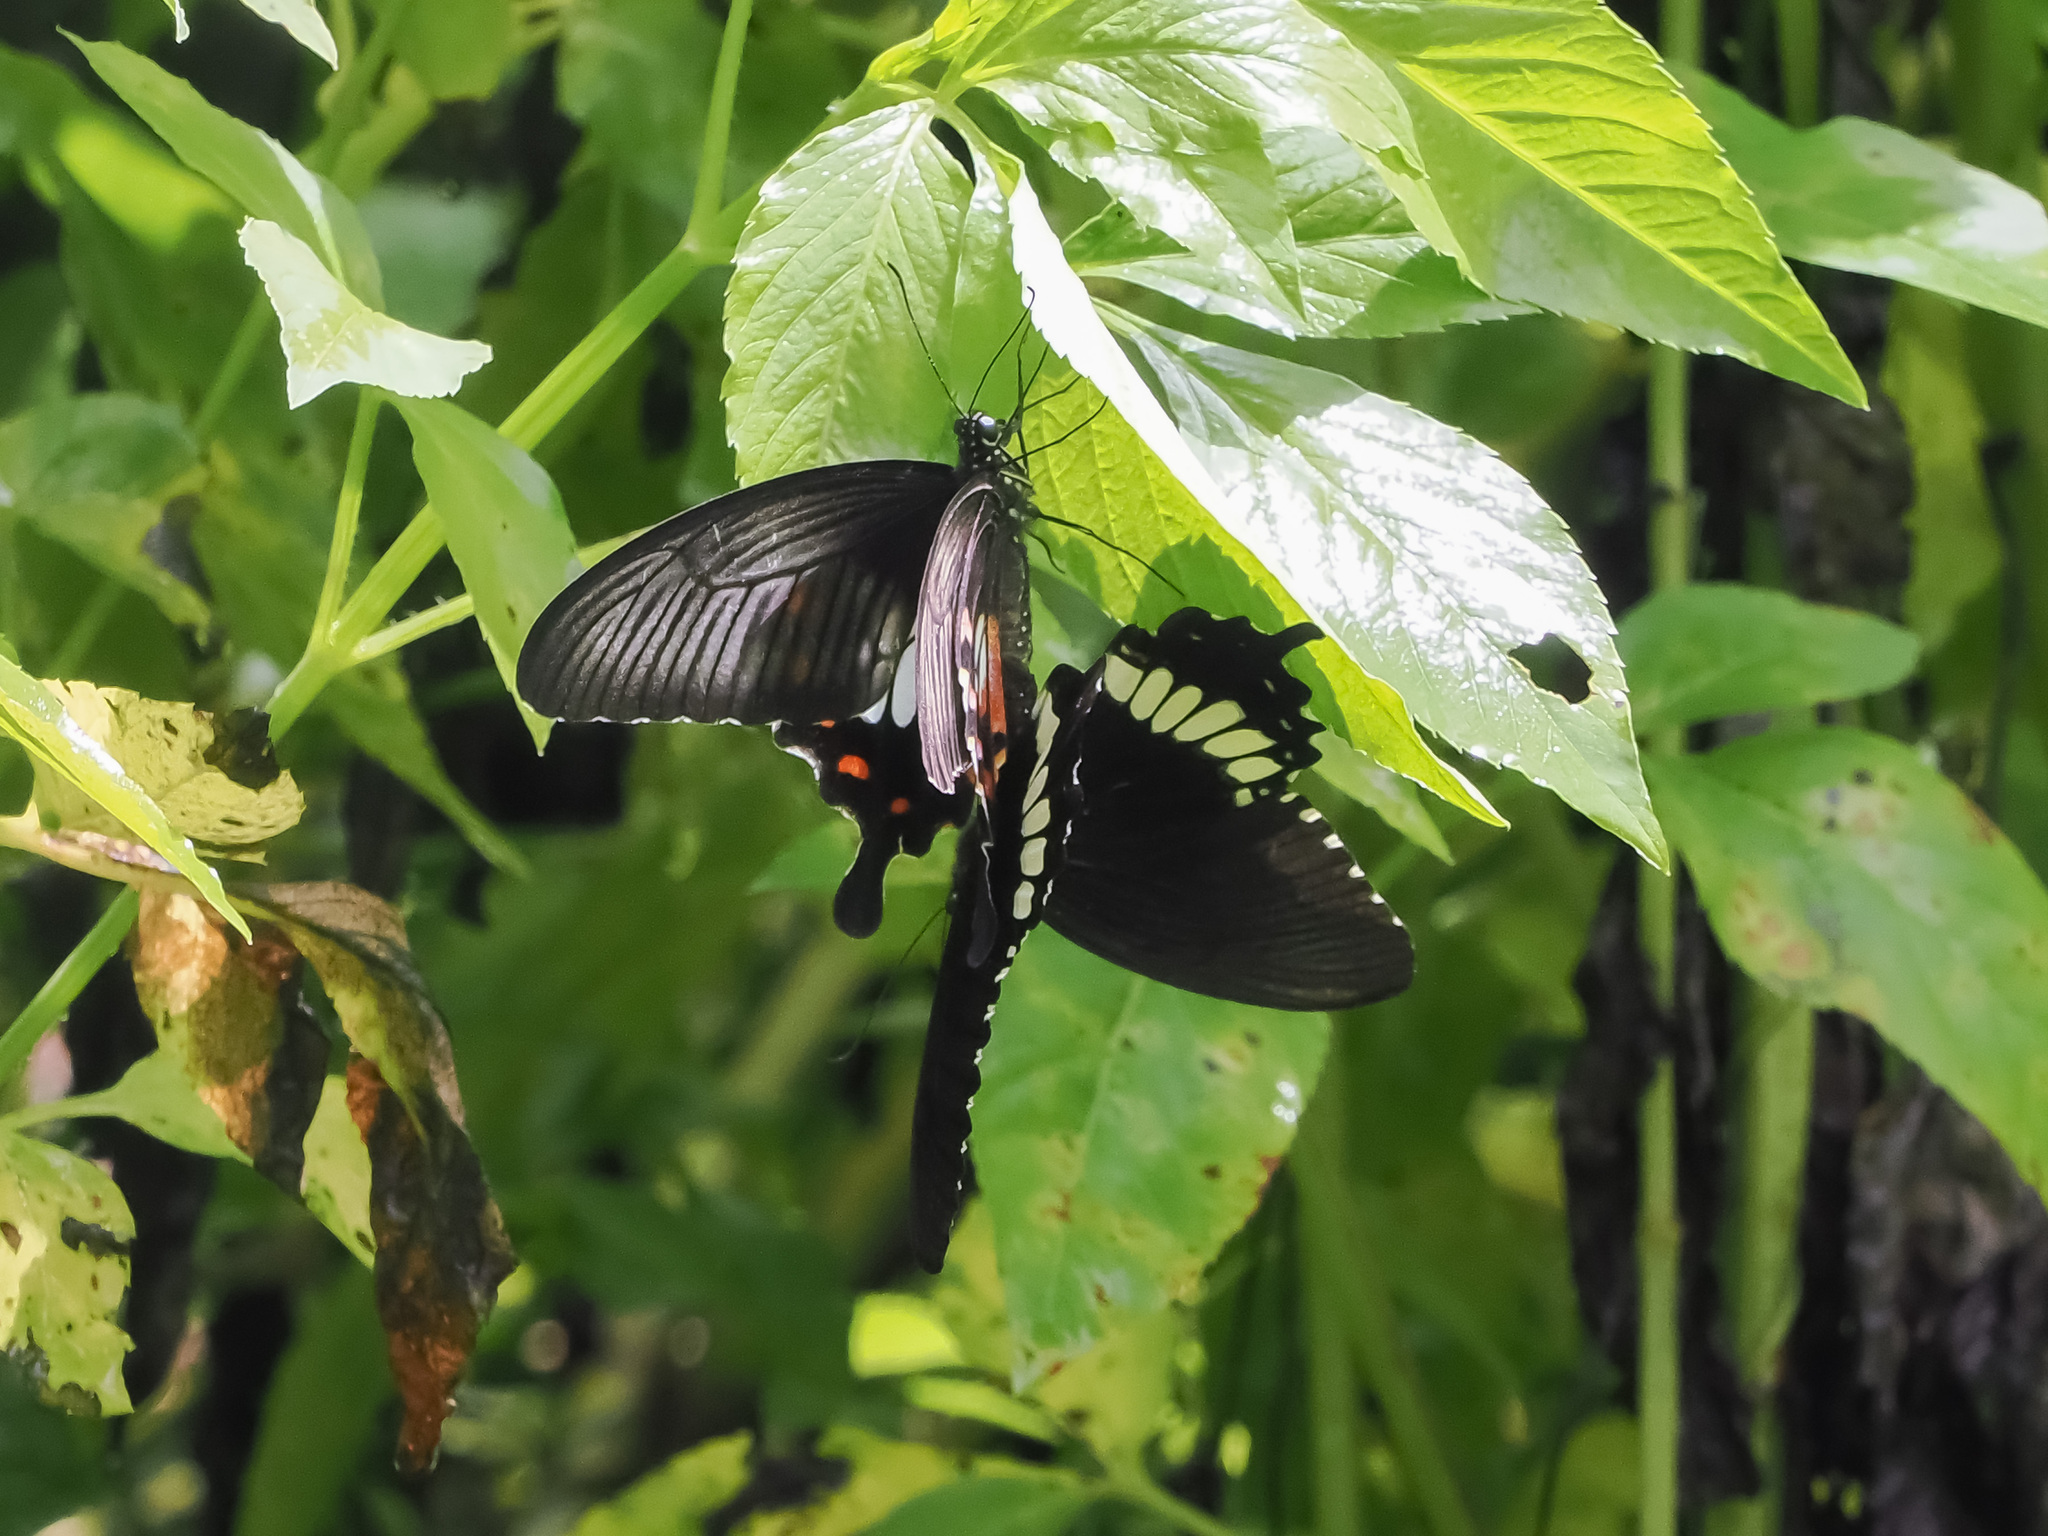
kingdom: Animalia
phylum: Arthropoda
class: Insecta
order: Lepidoptera
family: Papilionidae
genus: Papilio
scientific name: Papilio polytes
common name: Common mormon
